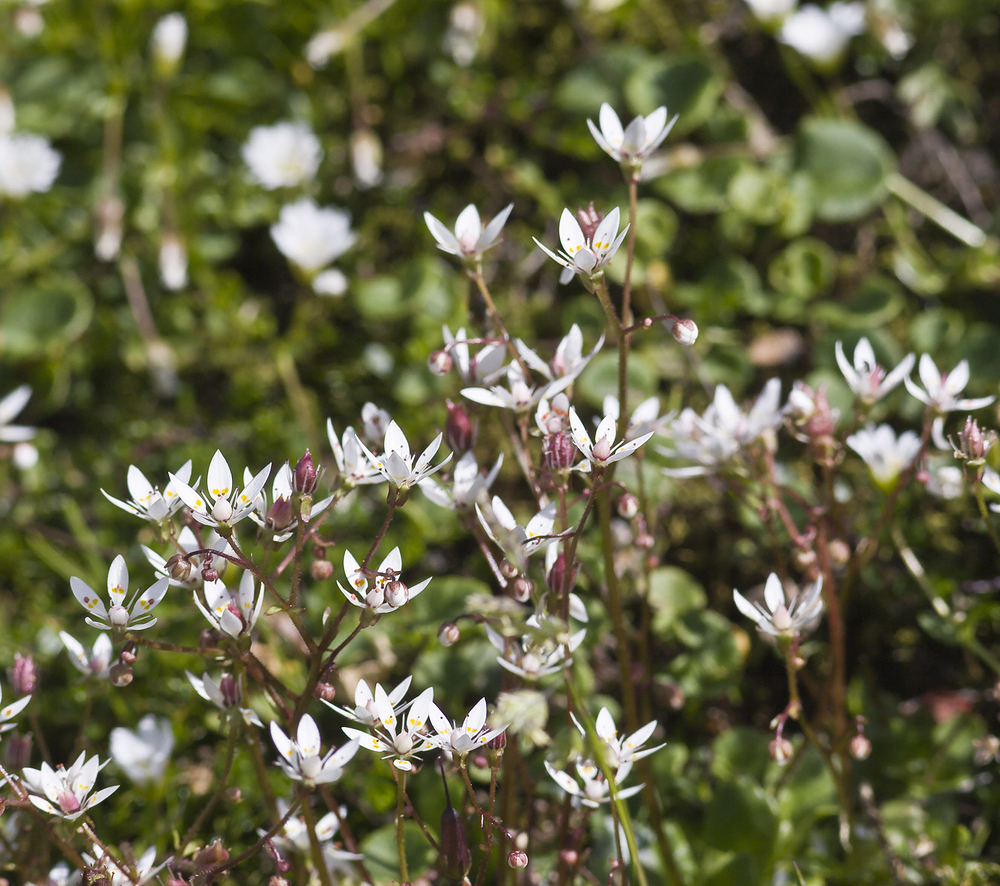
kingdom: Plantae
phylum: Tracheophyta
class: Magnoliopsida
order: Saxifragales
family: Saxifragaceae
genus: Micranthes
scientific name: Micranthes stellaris
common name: Starry saxifrage
